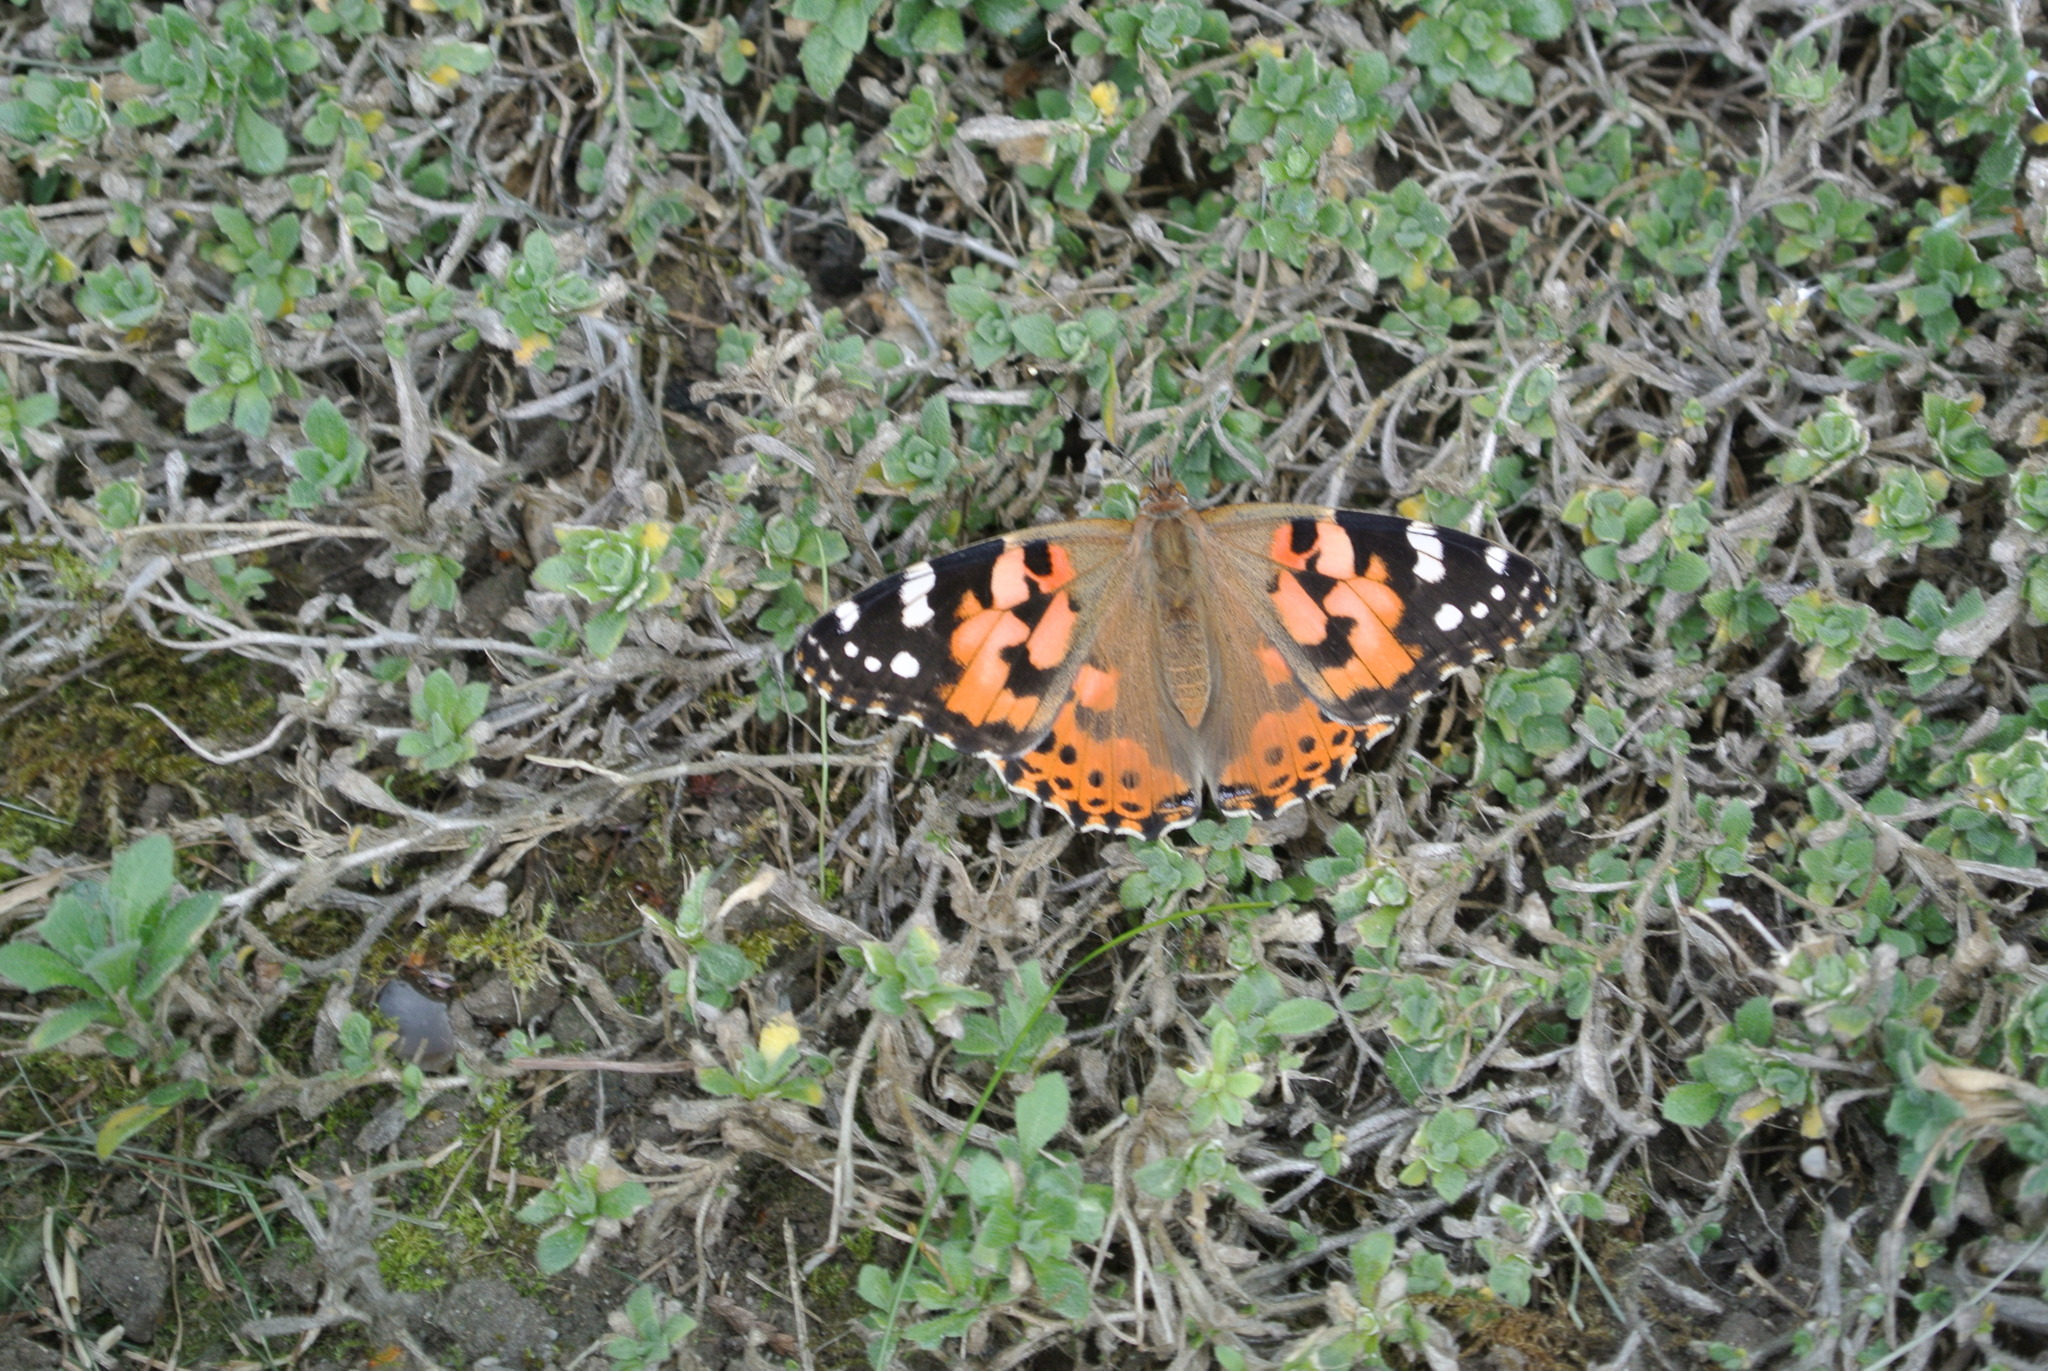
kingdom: Animalia
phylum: Arthropoda
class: Insecta
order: Lepidoptera
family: Nymphalidae
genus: Vanessa
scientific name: Vanessa cardui
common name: Painted lady
